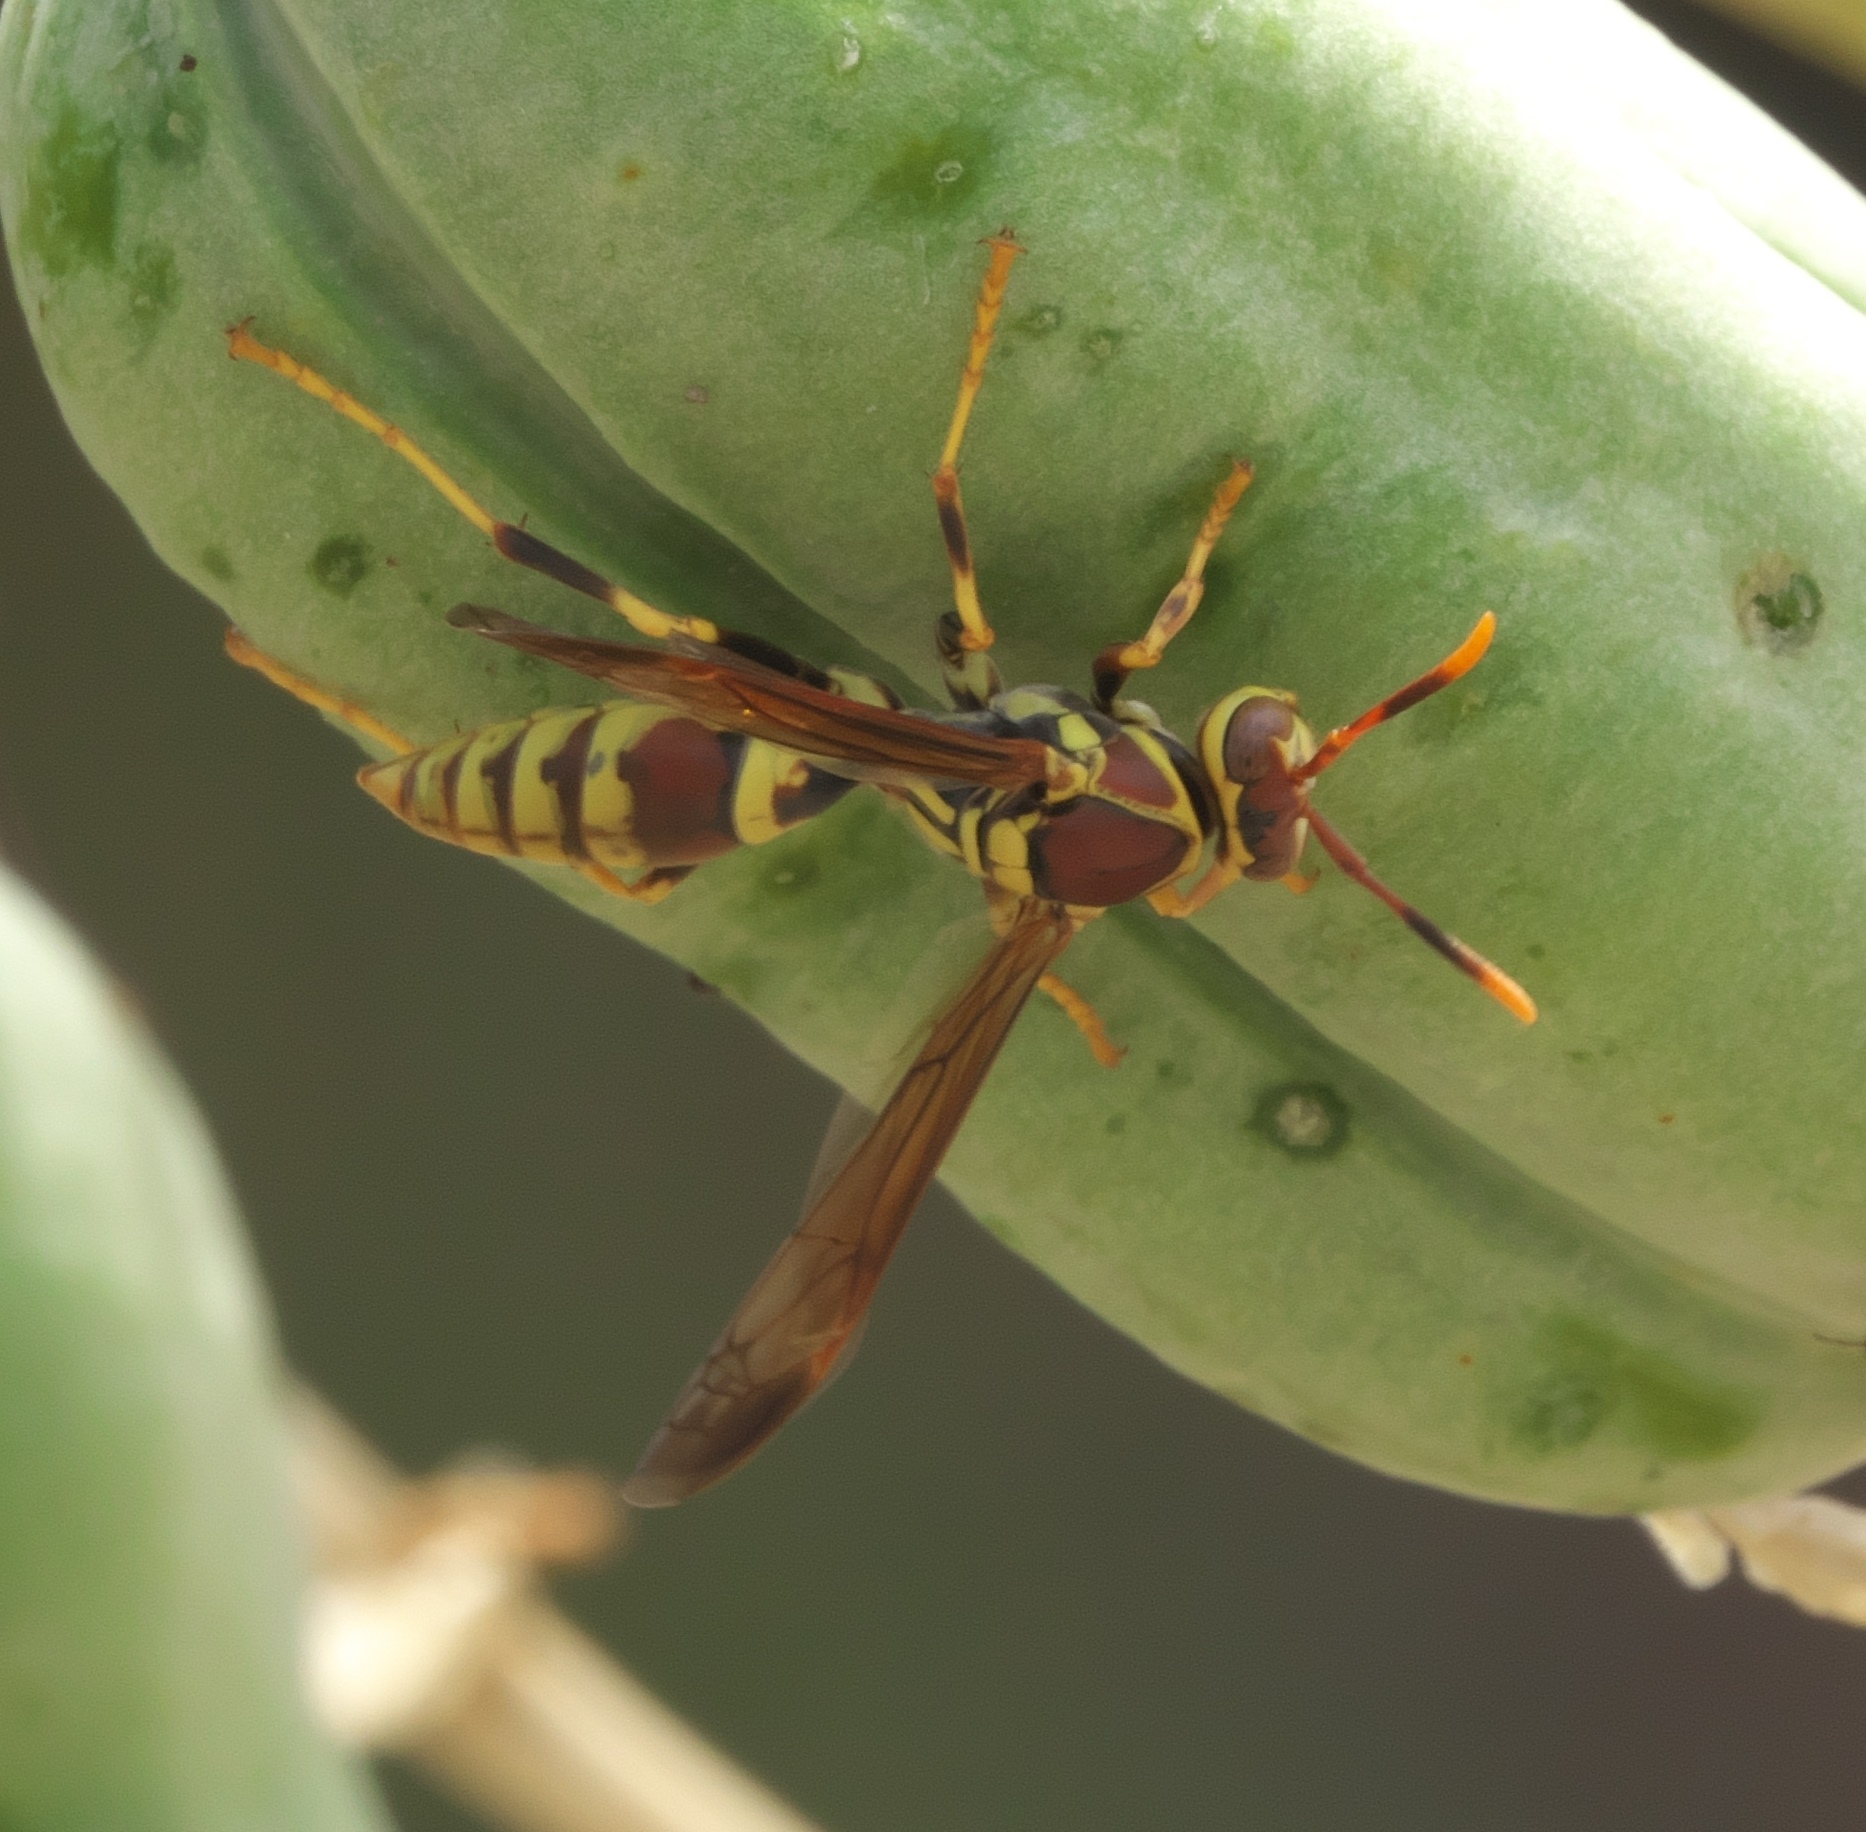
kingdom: Animalia
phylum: Arthropoda
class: Insecta
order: Hymenoptera
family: Eumenidae
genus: Polistes
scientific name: Polistes exclamans
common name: Paper wasp
